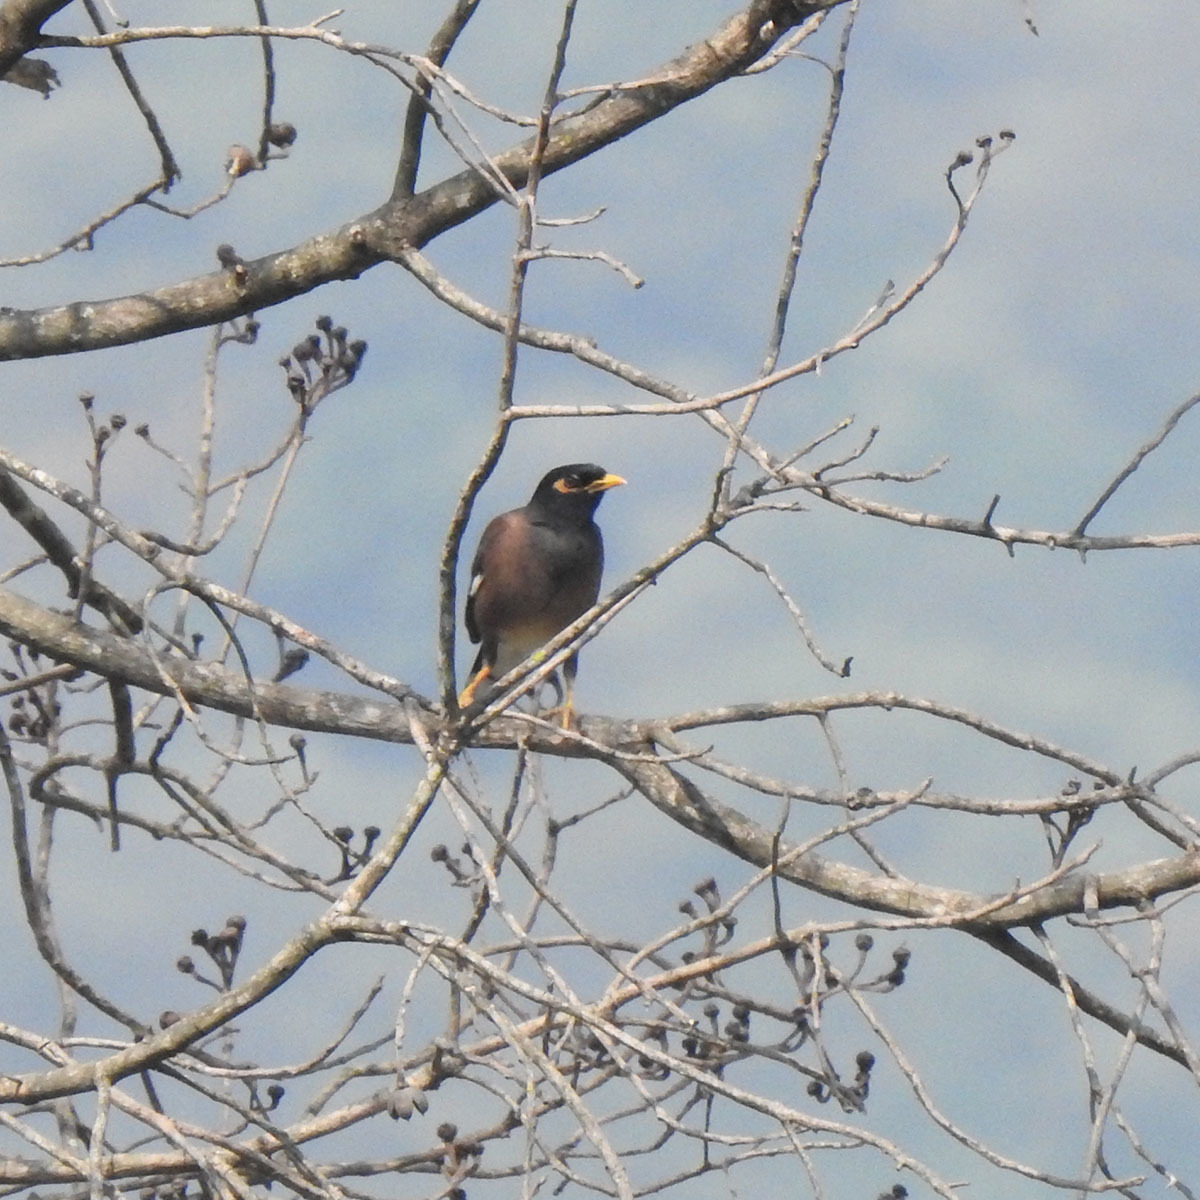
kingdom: Animalia
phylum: Chordata
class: Aves
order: Passeriformes
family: Sturnidae
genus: Acridotheres
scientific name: Acridotheres tristis
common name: Common myna
